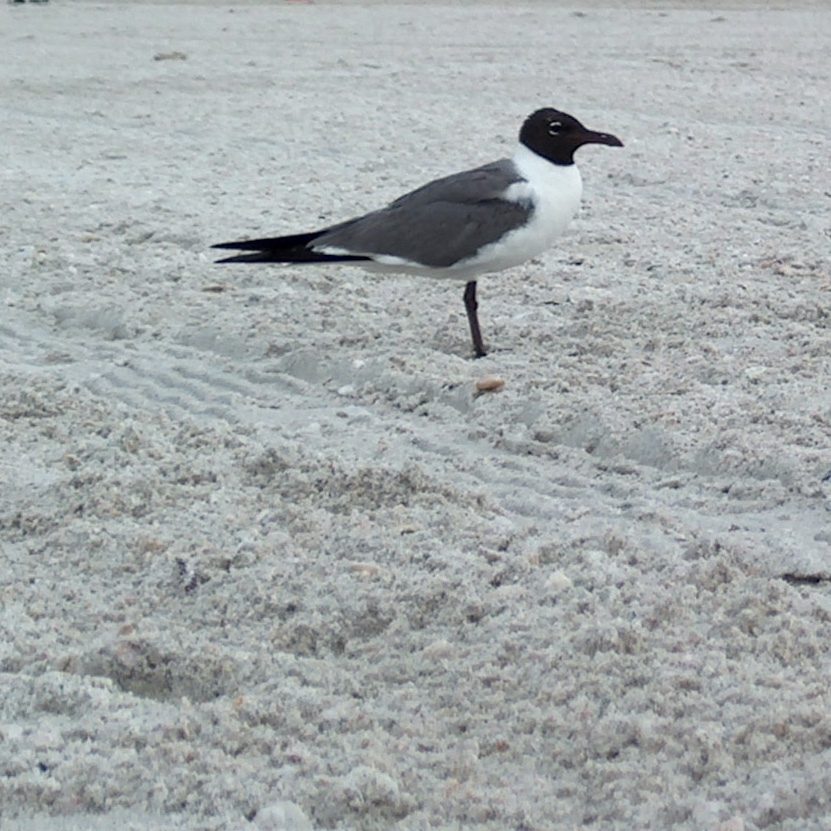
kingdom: Animalia
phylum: Chordata
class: Aves
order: Charadriiformes
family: Laridae
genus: Leucophaeus
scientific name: Leucophaeus atricilla
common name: Laughing gull
